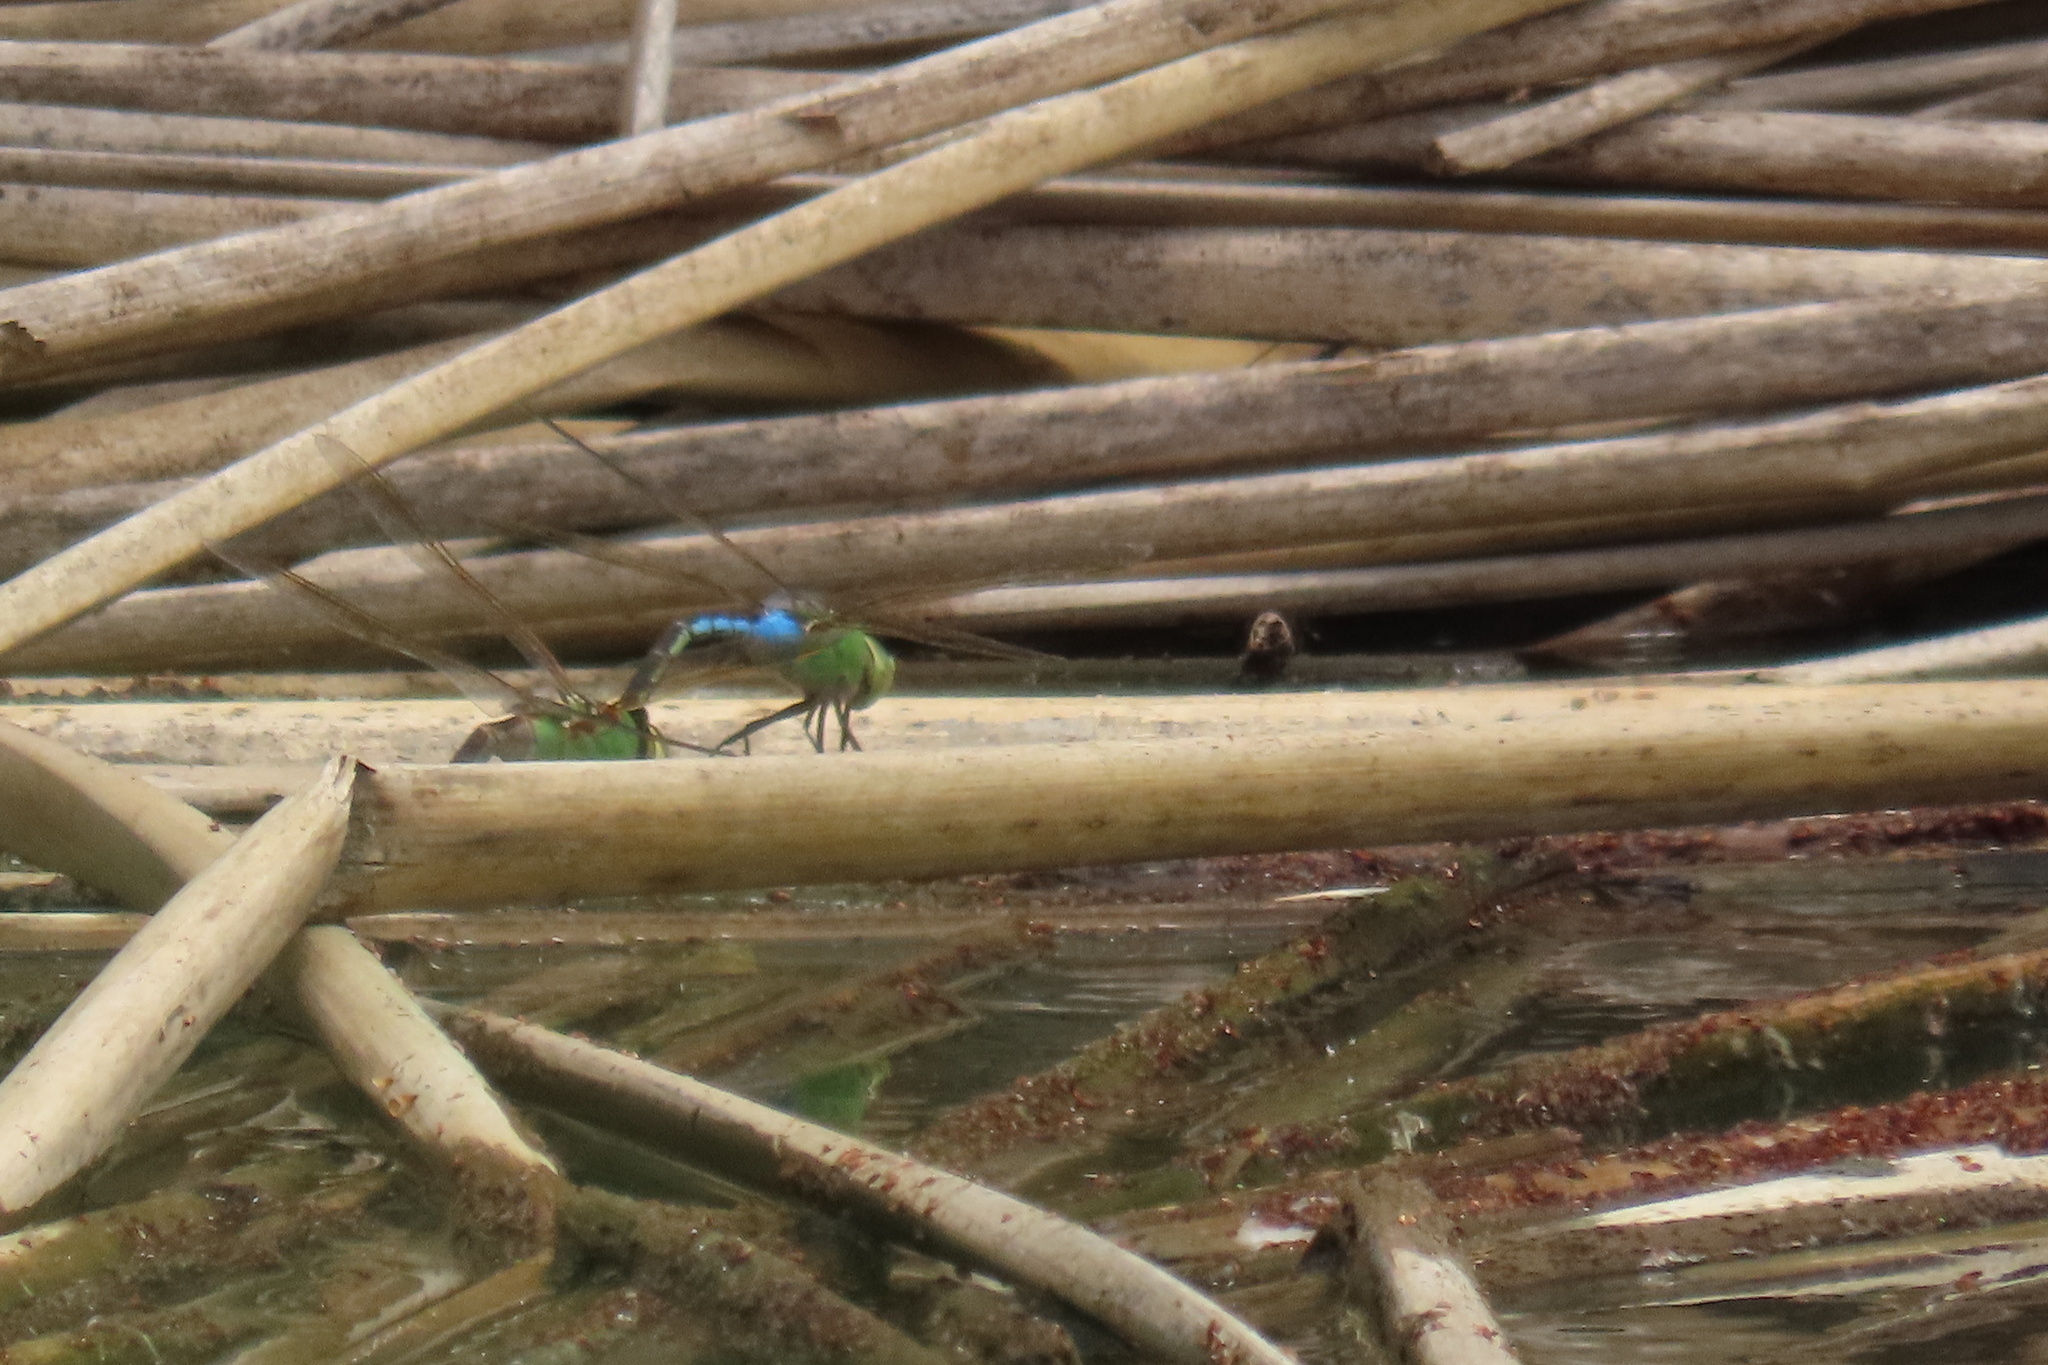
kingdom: Animalia
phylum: Arthropoda
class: Insecta
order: Odonata
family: Aeshnidae
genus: Anax
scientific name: Anax junius
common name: Common green darner
